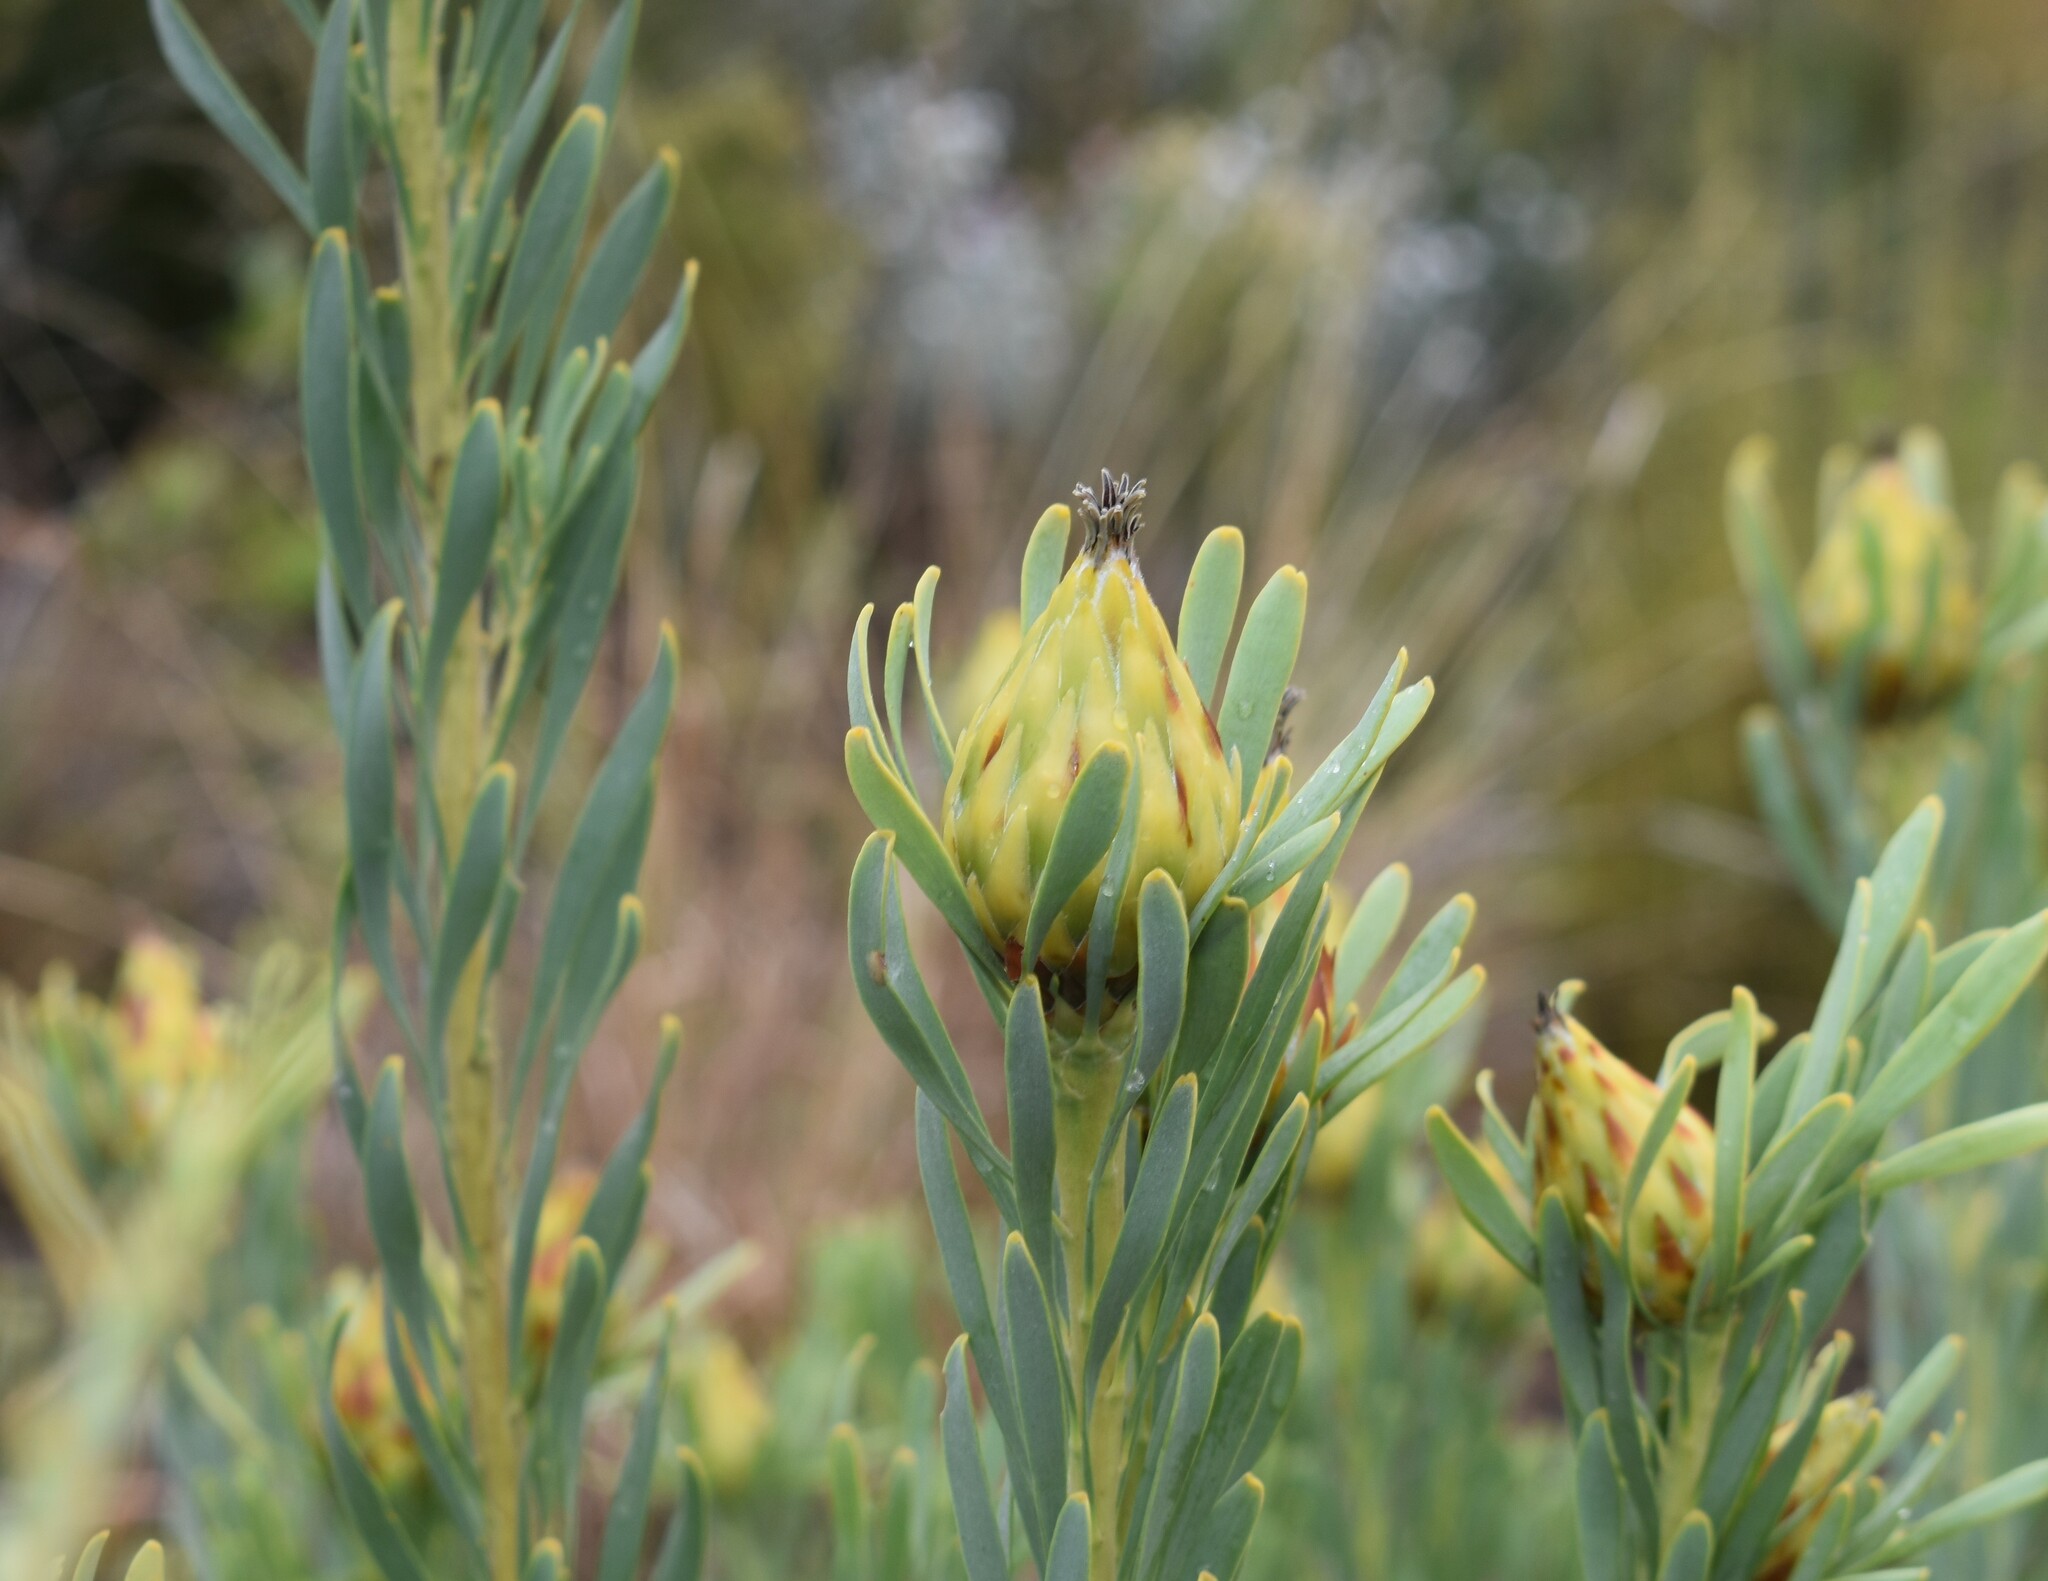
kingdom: Plantae
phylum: Tracheophyta
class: Magnoliopsida
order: Proteales
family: Proteaceae
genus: Leucadendron
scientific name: Leucadendron rubrum
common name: Spinning top
